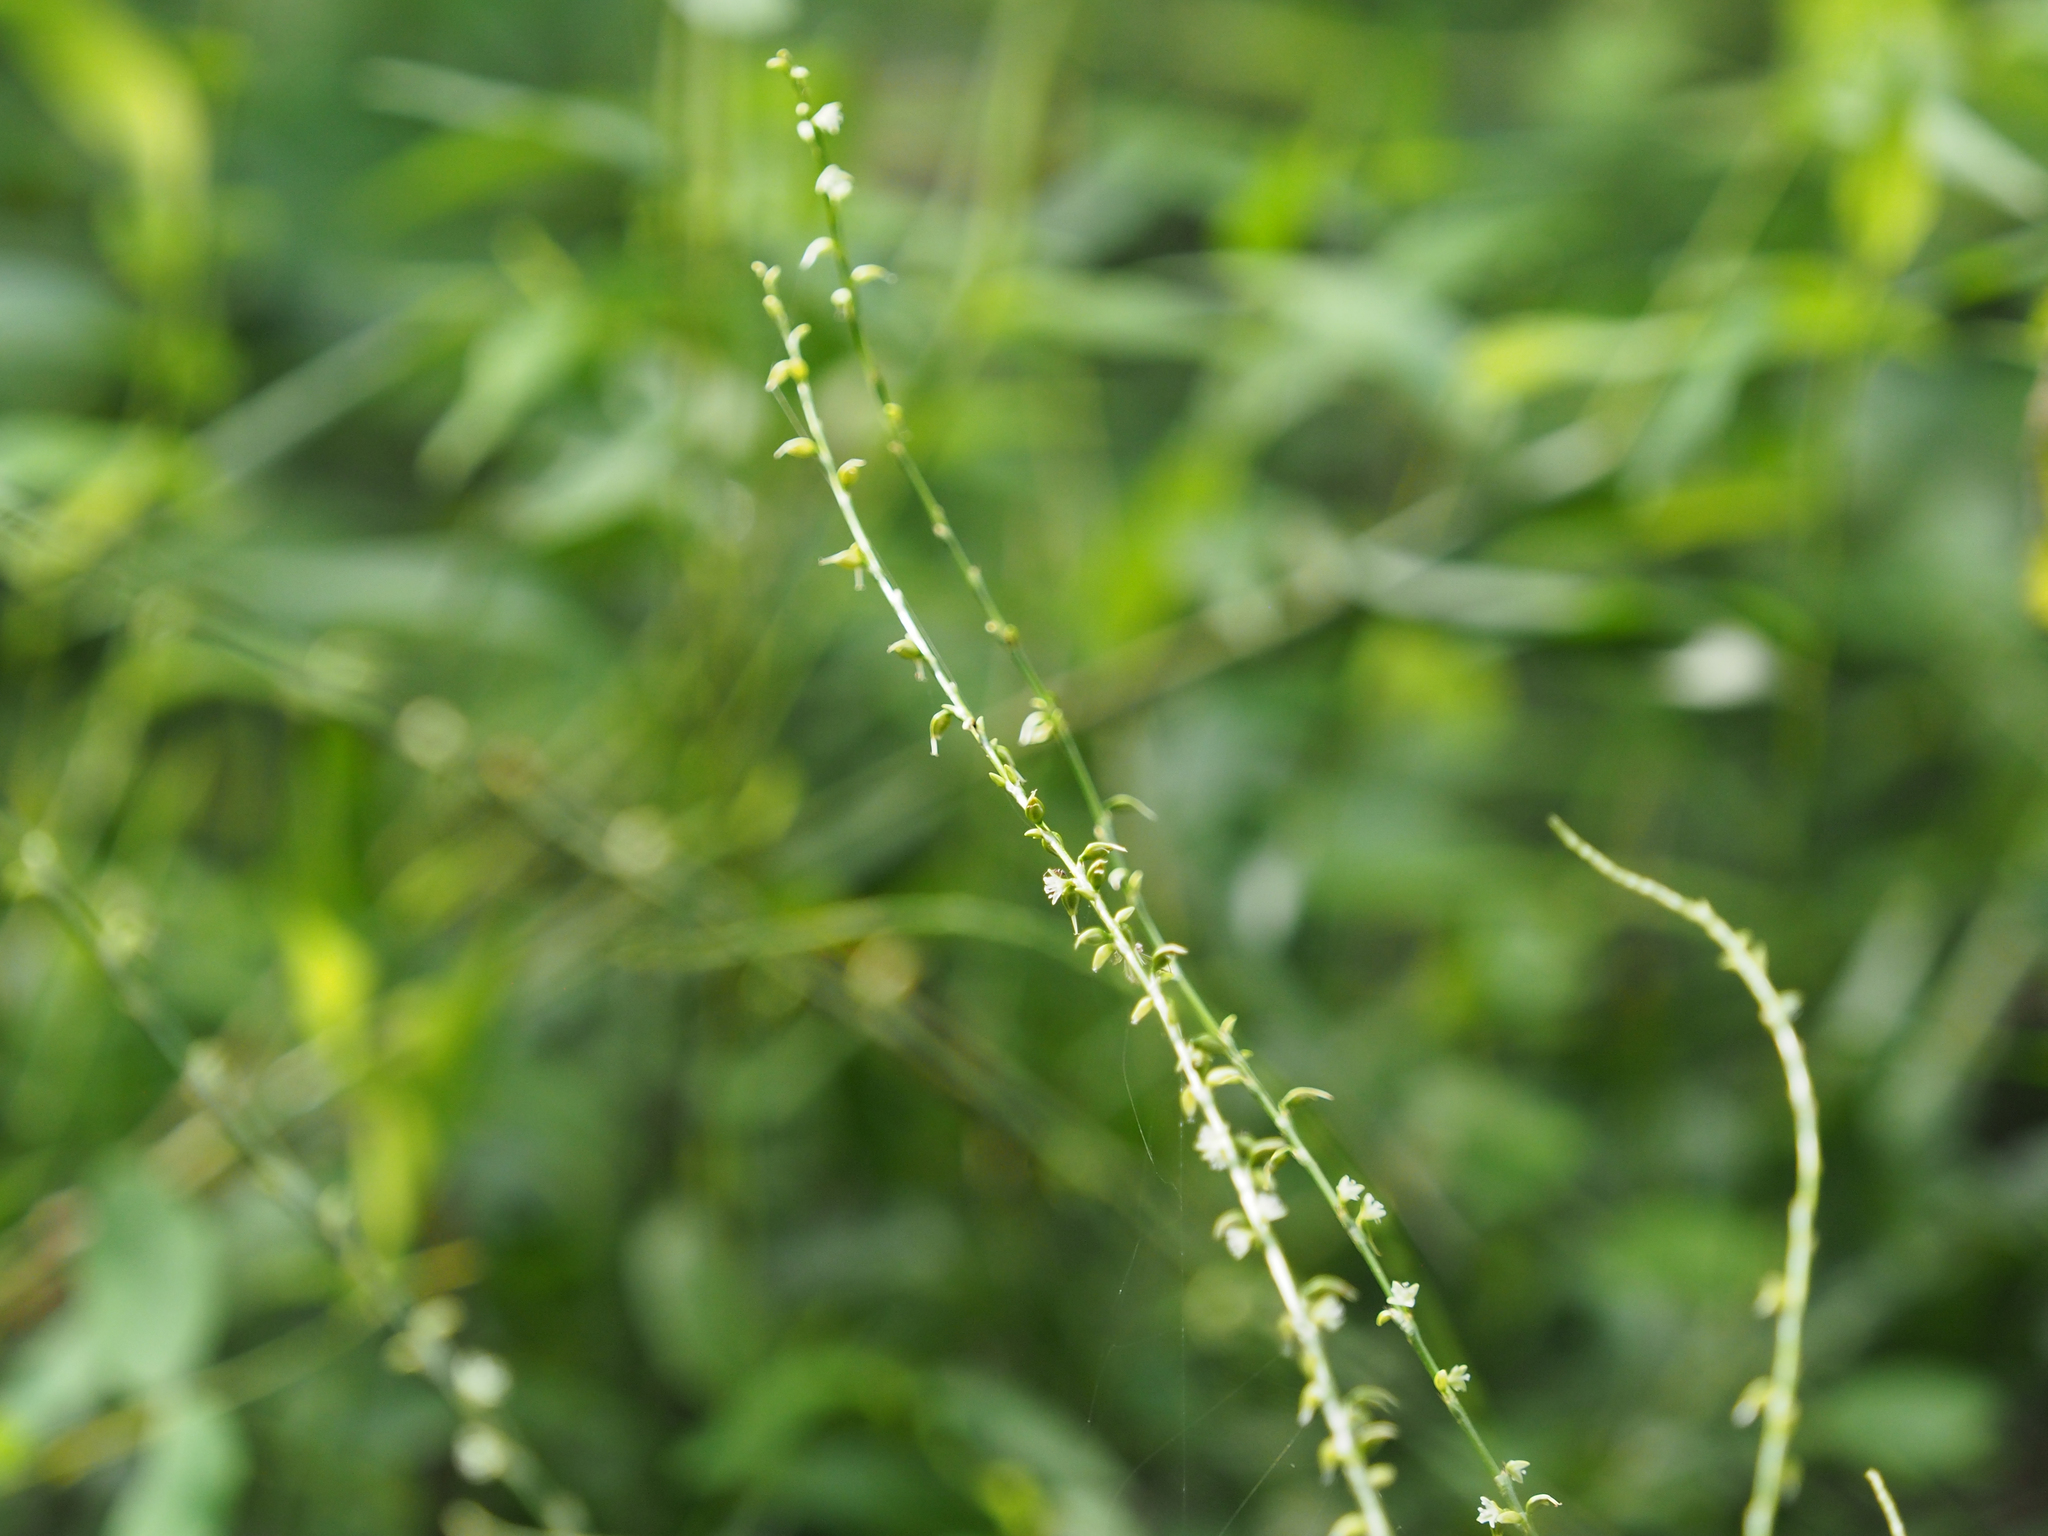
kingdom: Plantae
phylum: Tracheophyta
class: Magnoliopsida
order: Caryophyllales
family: Polygonaceae
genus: Persicaria
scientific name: Persicaria virginiana
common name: Jumpseed
